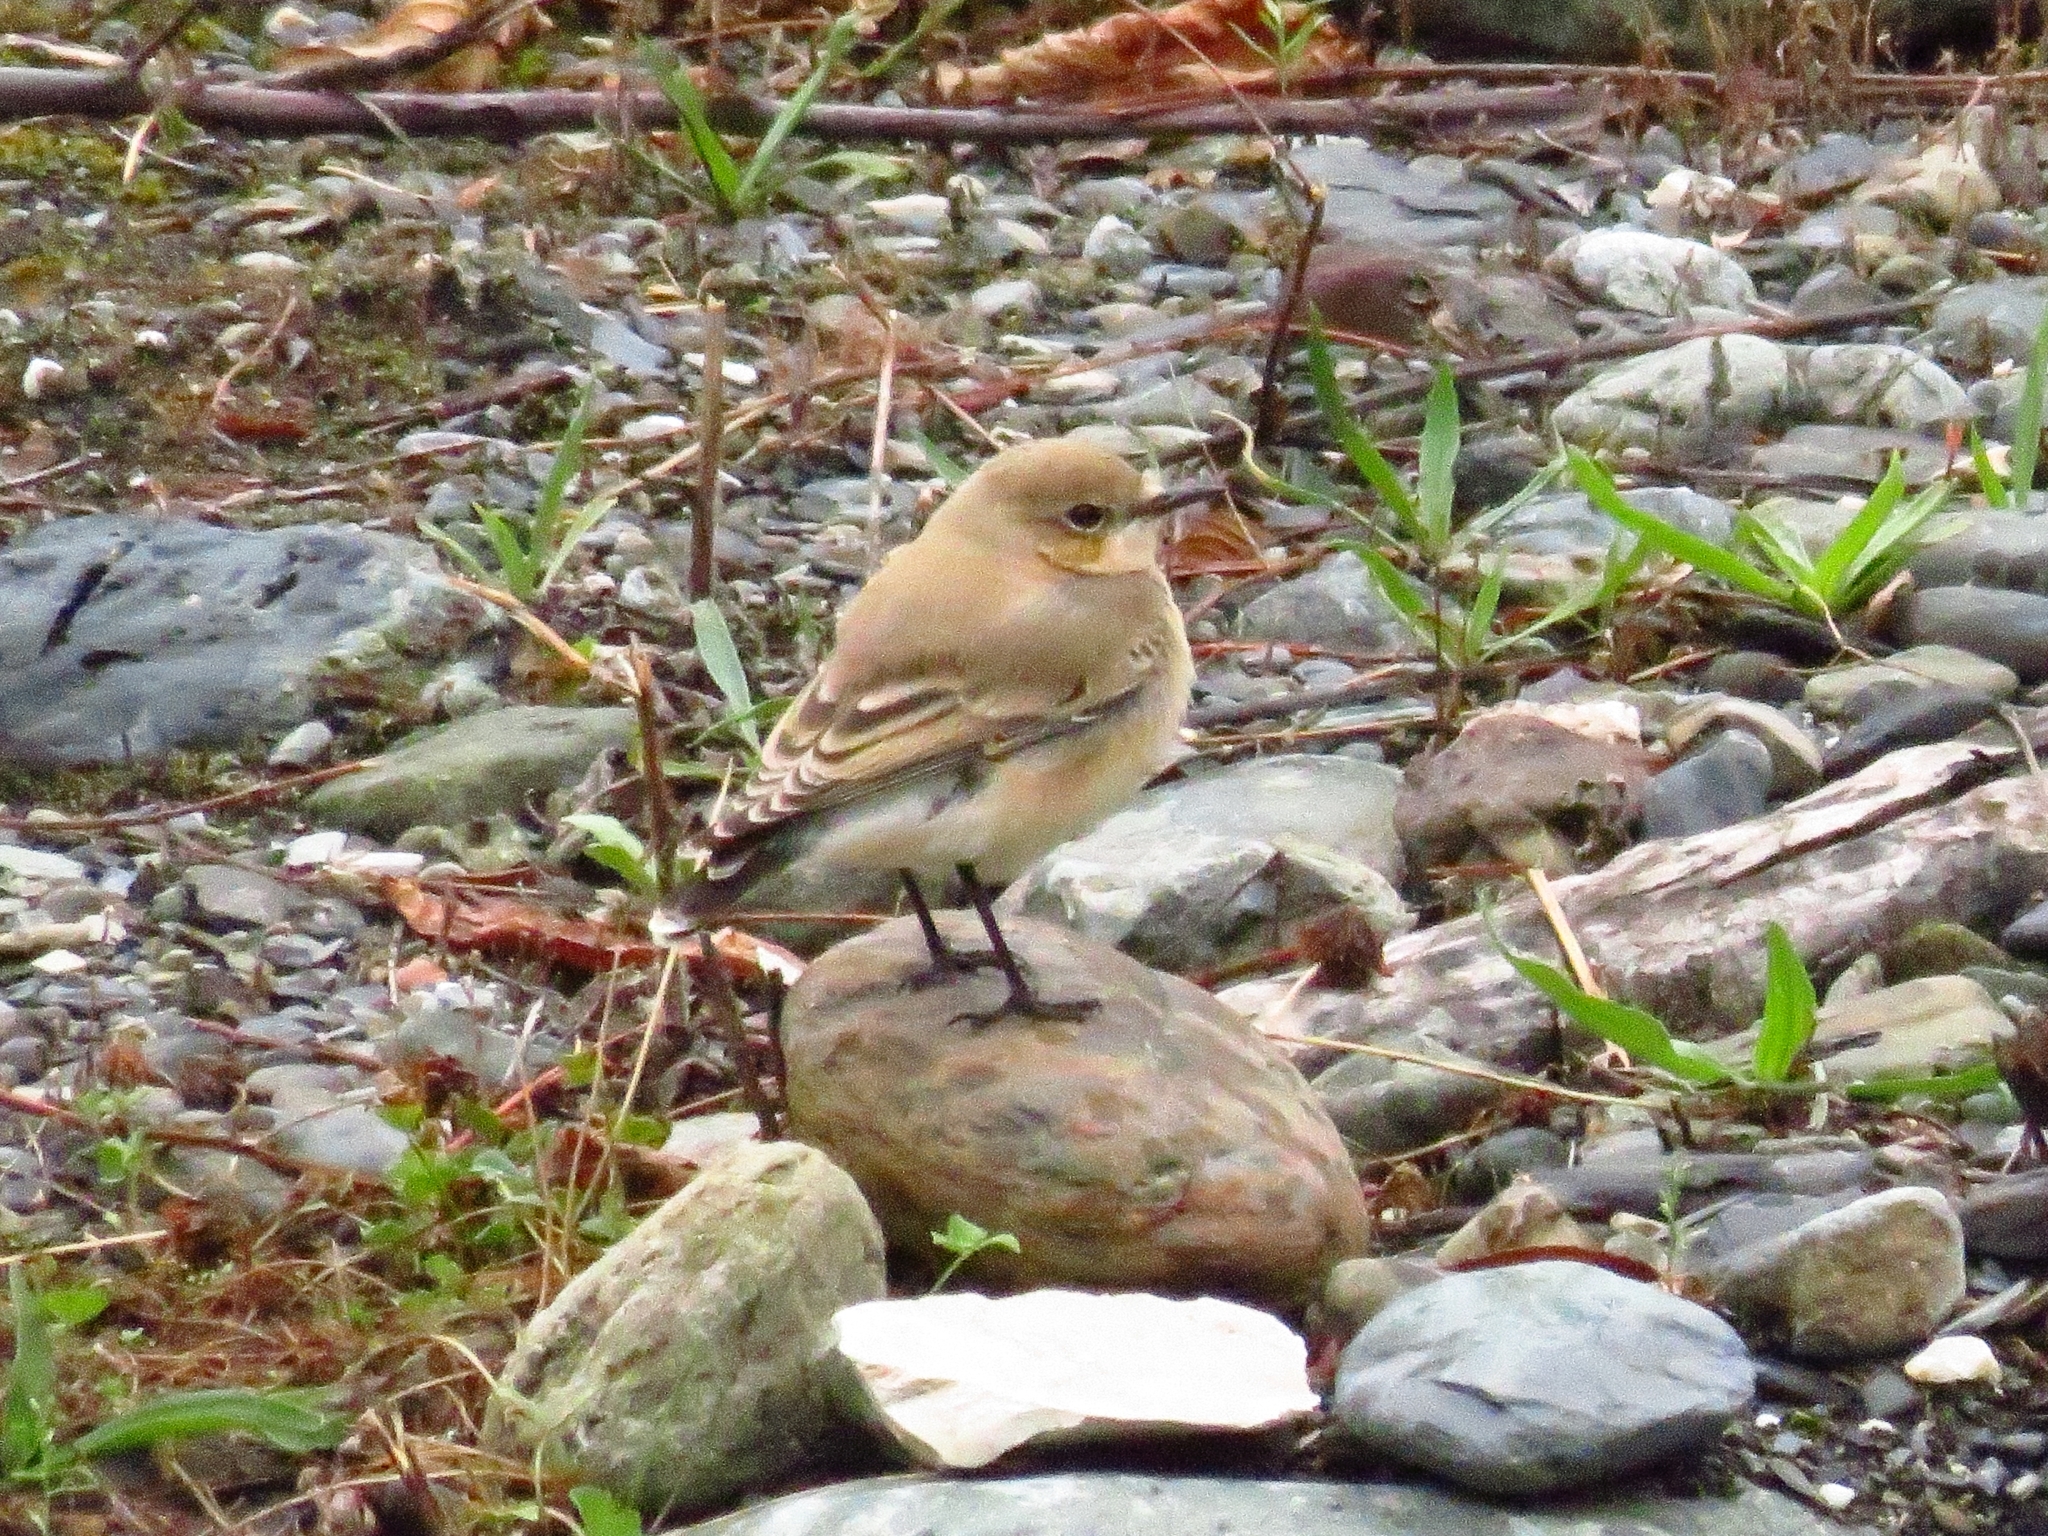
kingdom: Animalia
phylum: Chordata
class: Aves
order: Passeriformes
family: Muscicapidae
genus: Oenanthe
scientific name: Oenanthe oenanthe
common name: Northern wheatear
